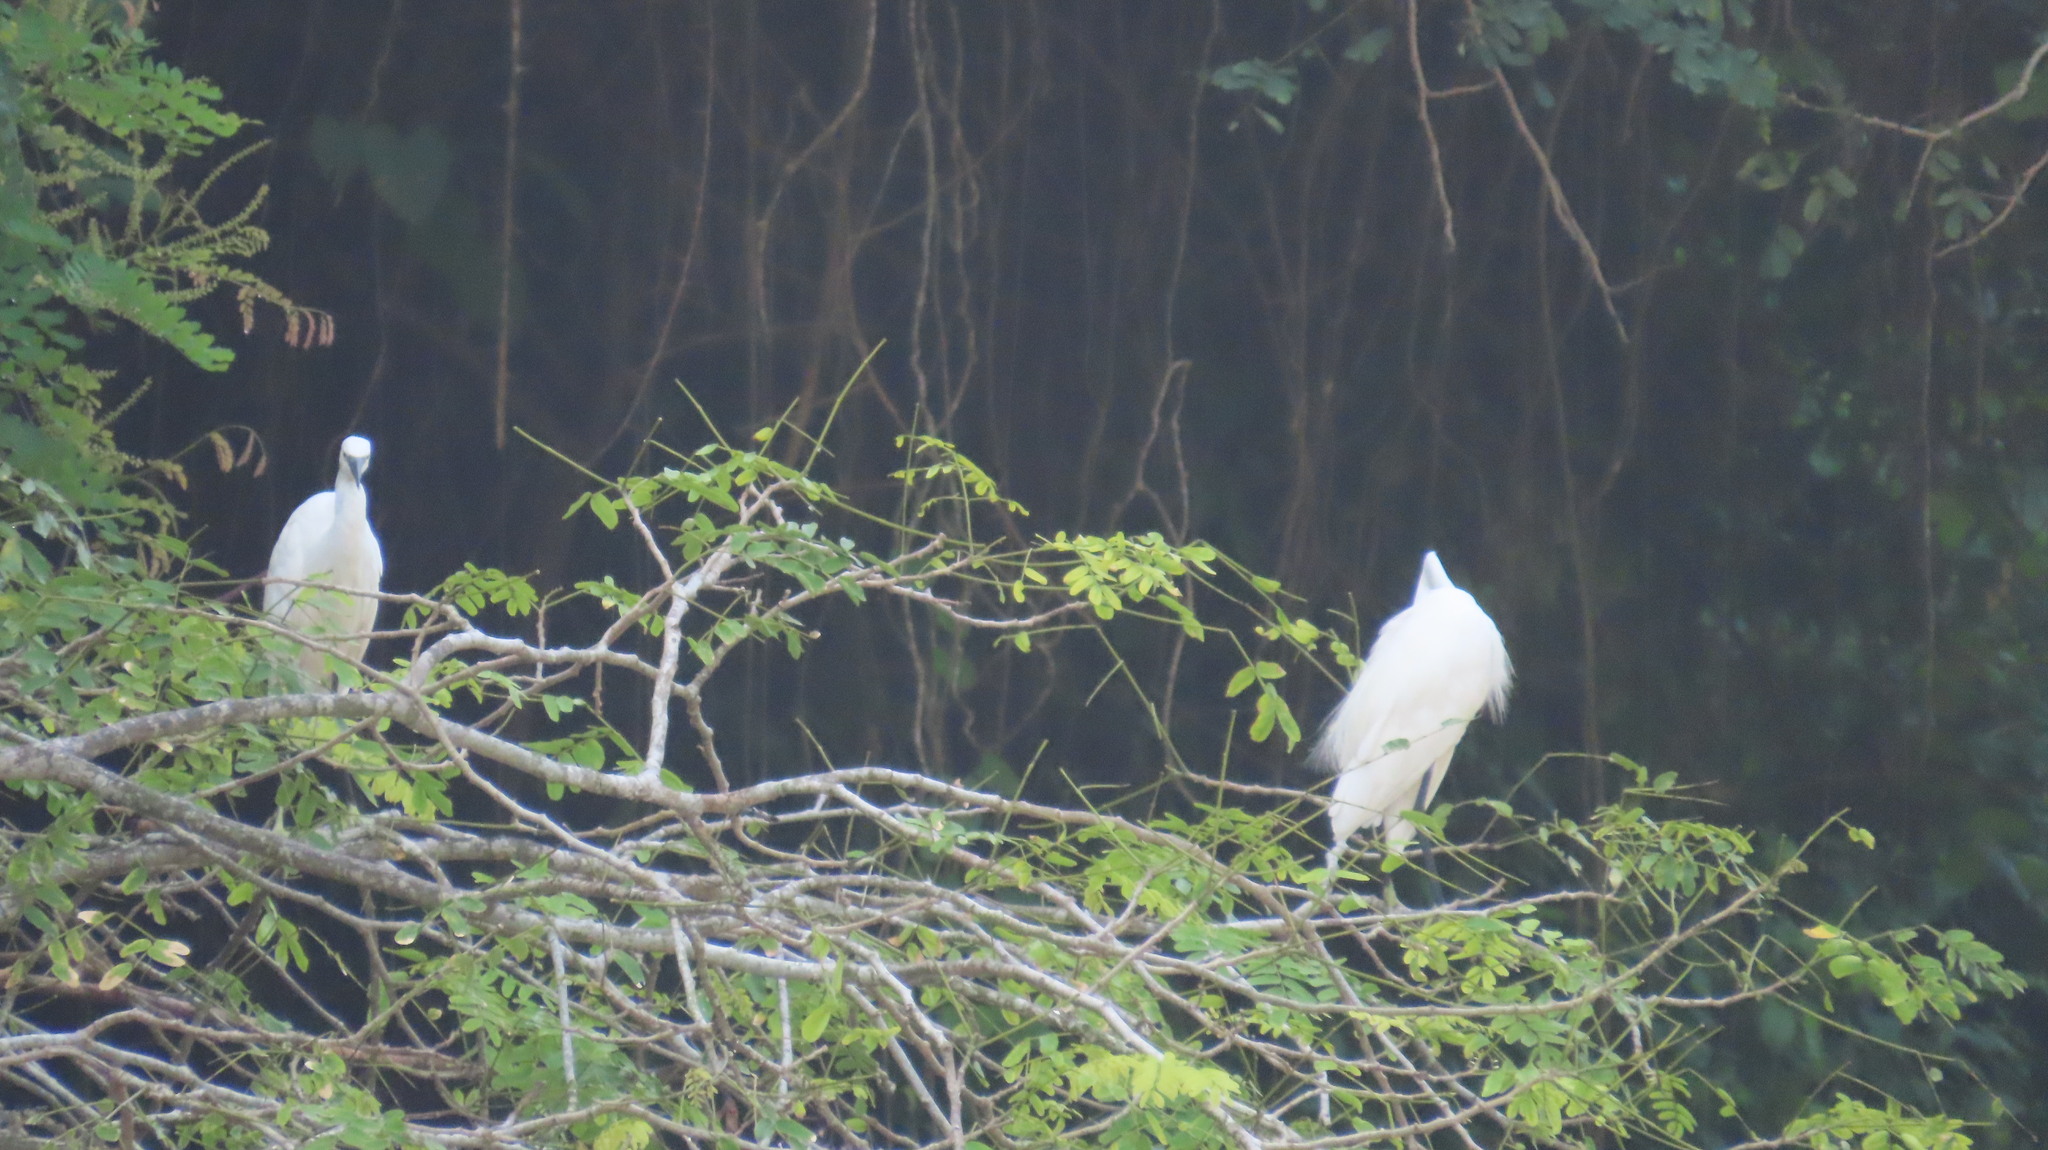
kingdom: Animalia
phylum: Chordata
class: Aves
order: Pelecaniformes
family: Ardeidae
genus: Egretta
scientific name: Egretta garzetta
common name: Little egret
